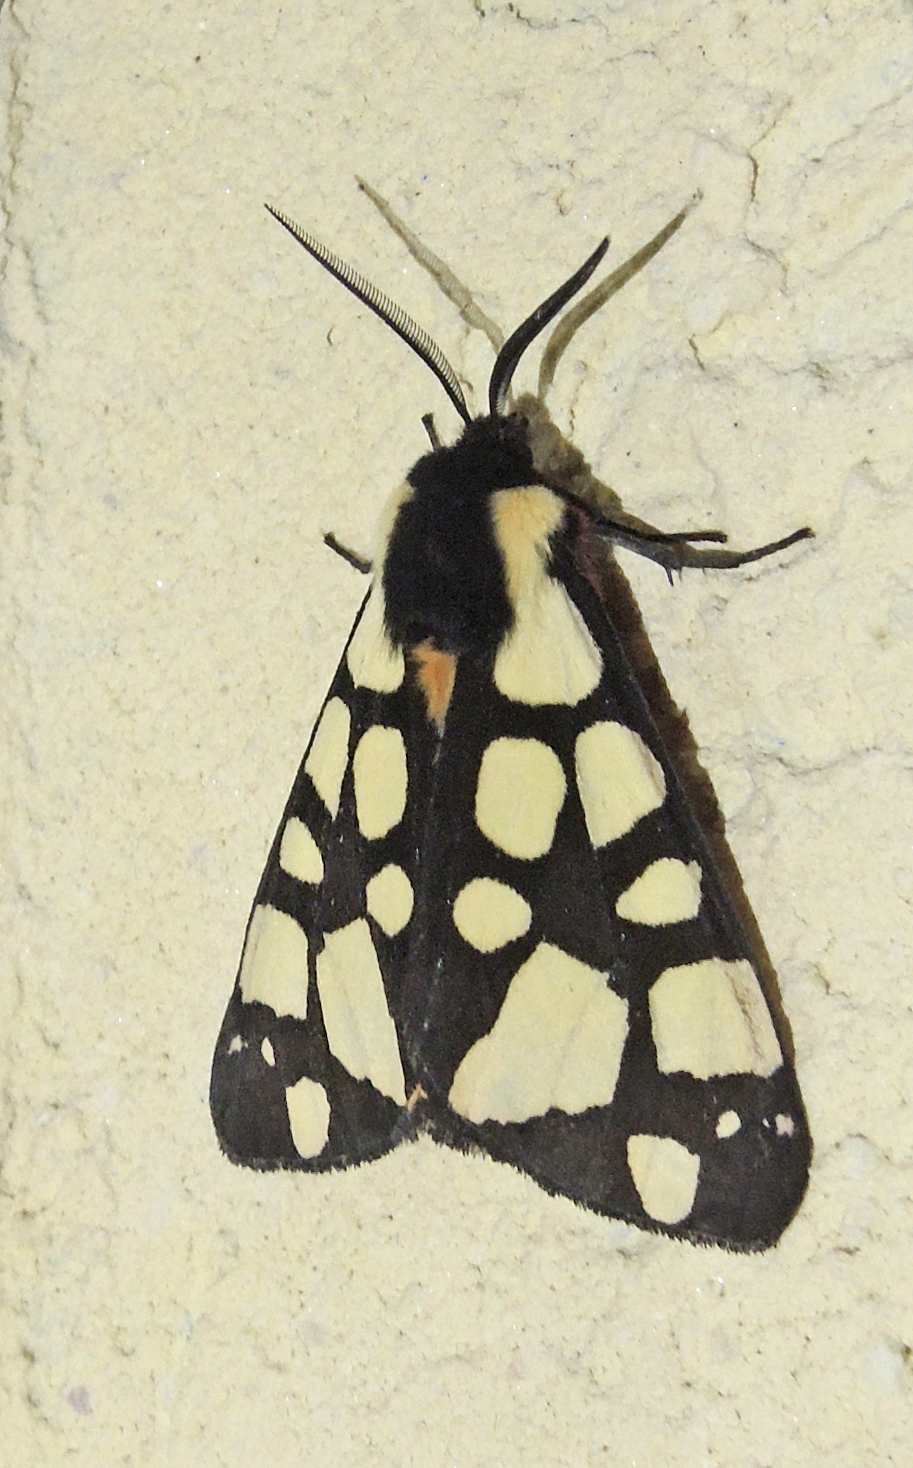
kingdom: Animalia
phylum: Arthropoda
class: Insecta
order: Lepidoptera
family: Erebidae
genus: Epicallia
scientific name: Epicallia villica
